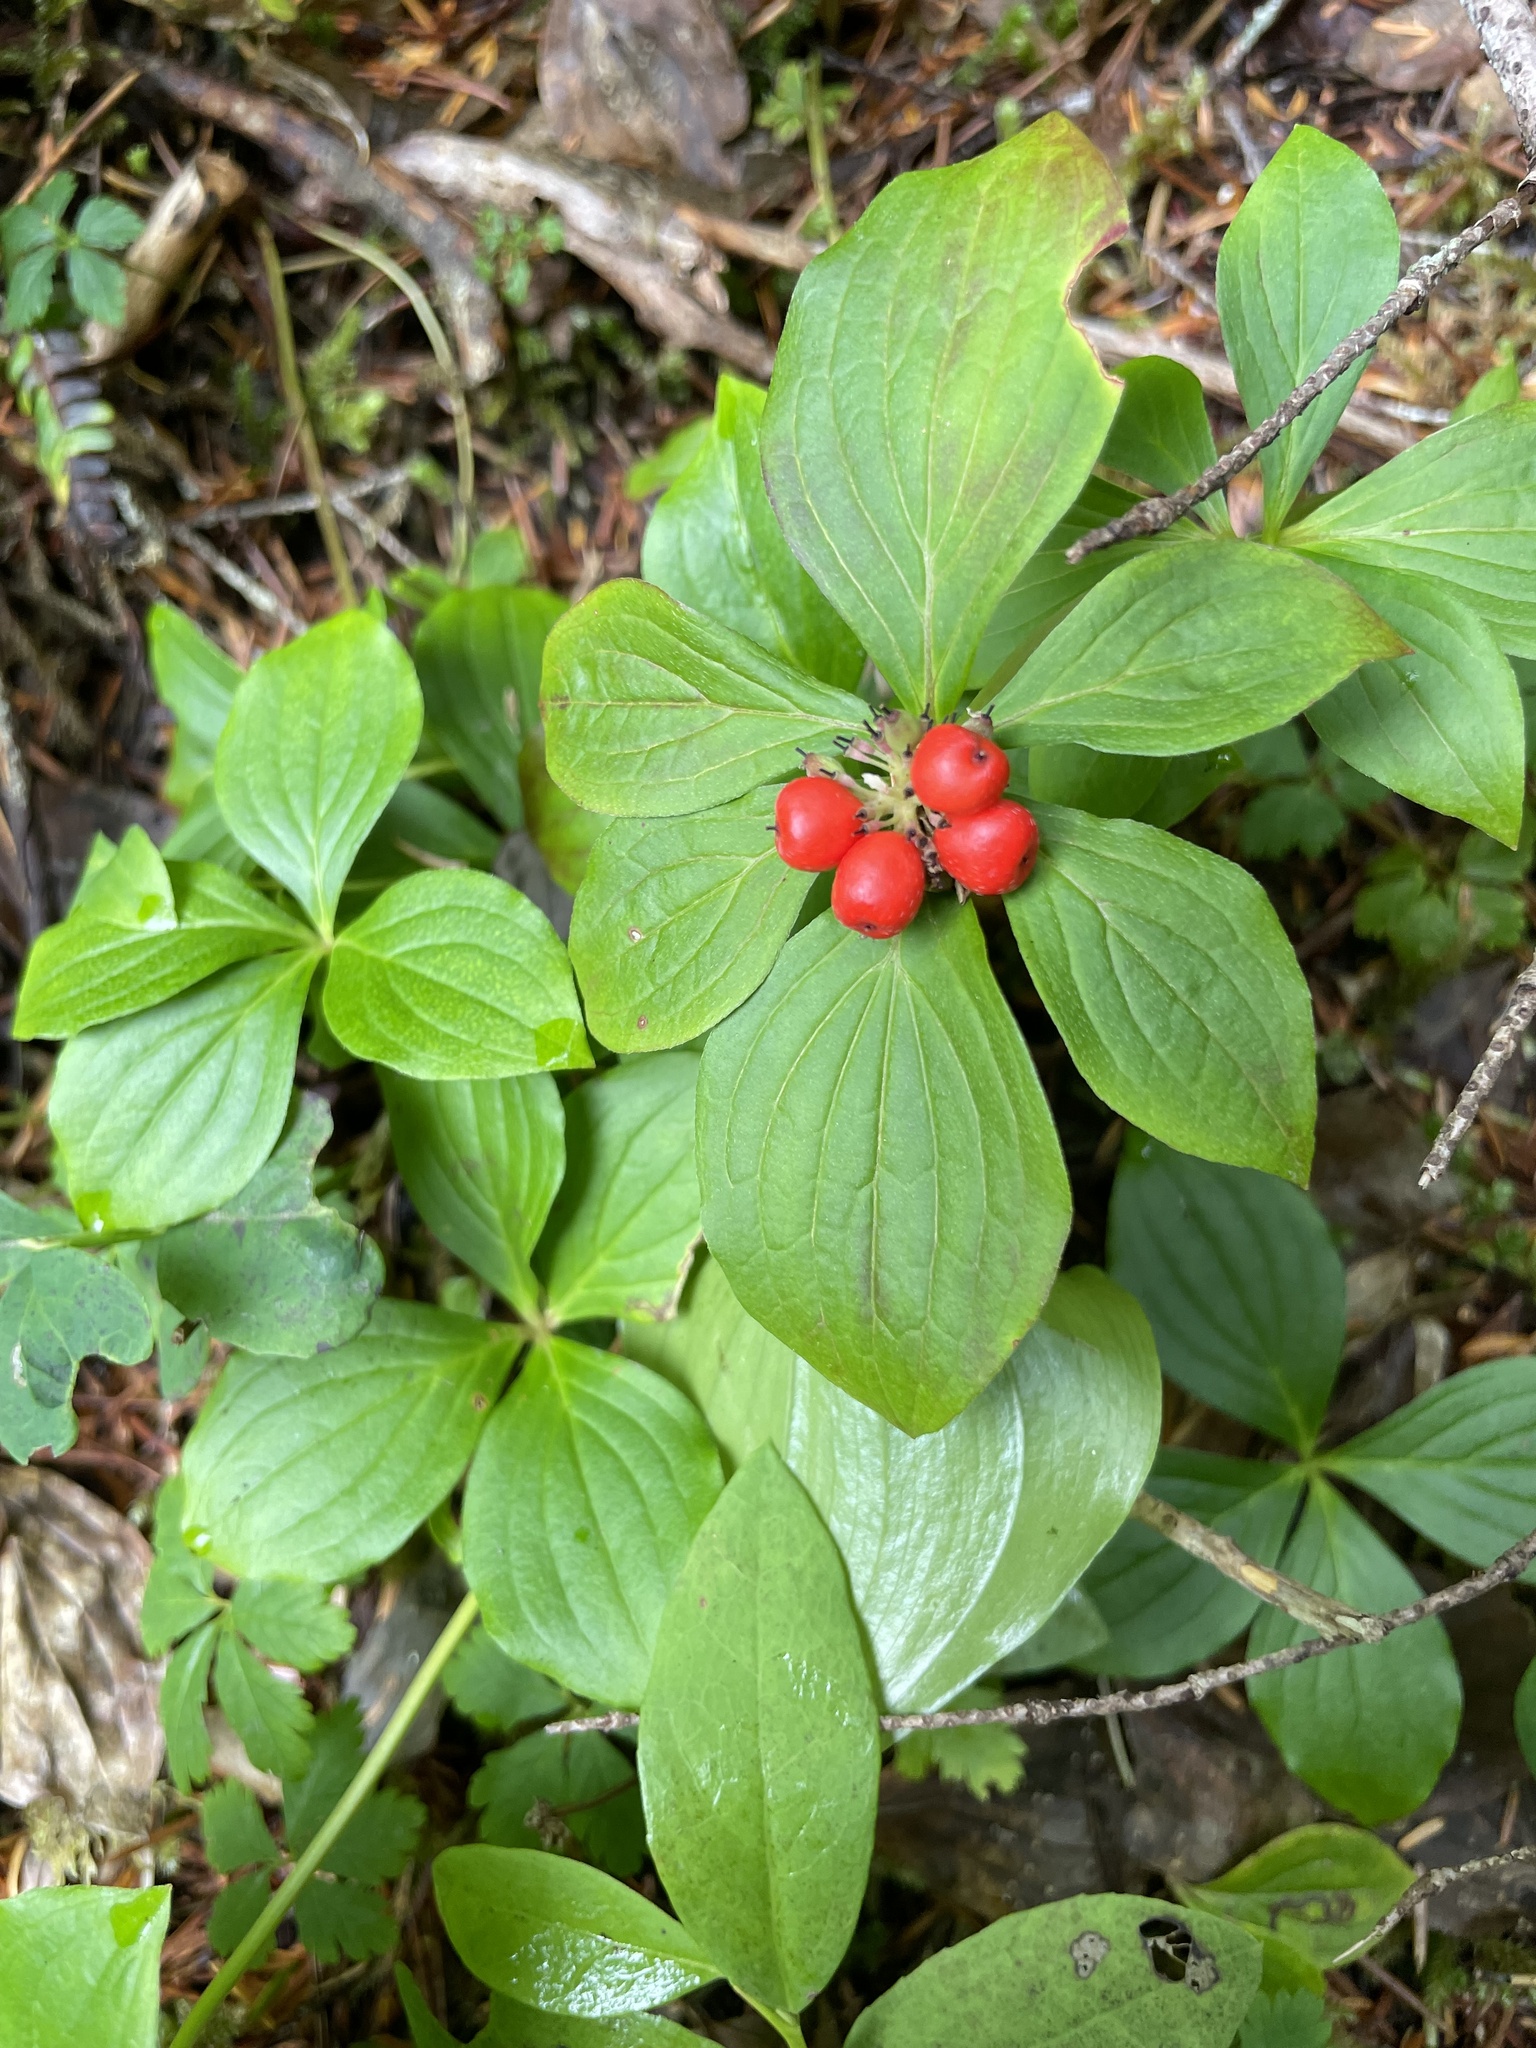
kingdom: Plantae
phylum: Tracheophyta
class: Magnoliopsida
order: Cornales
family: Cornaceae
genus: Cornus
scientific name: Cornus unalaschkensis
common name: Alaska bunchberry
